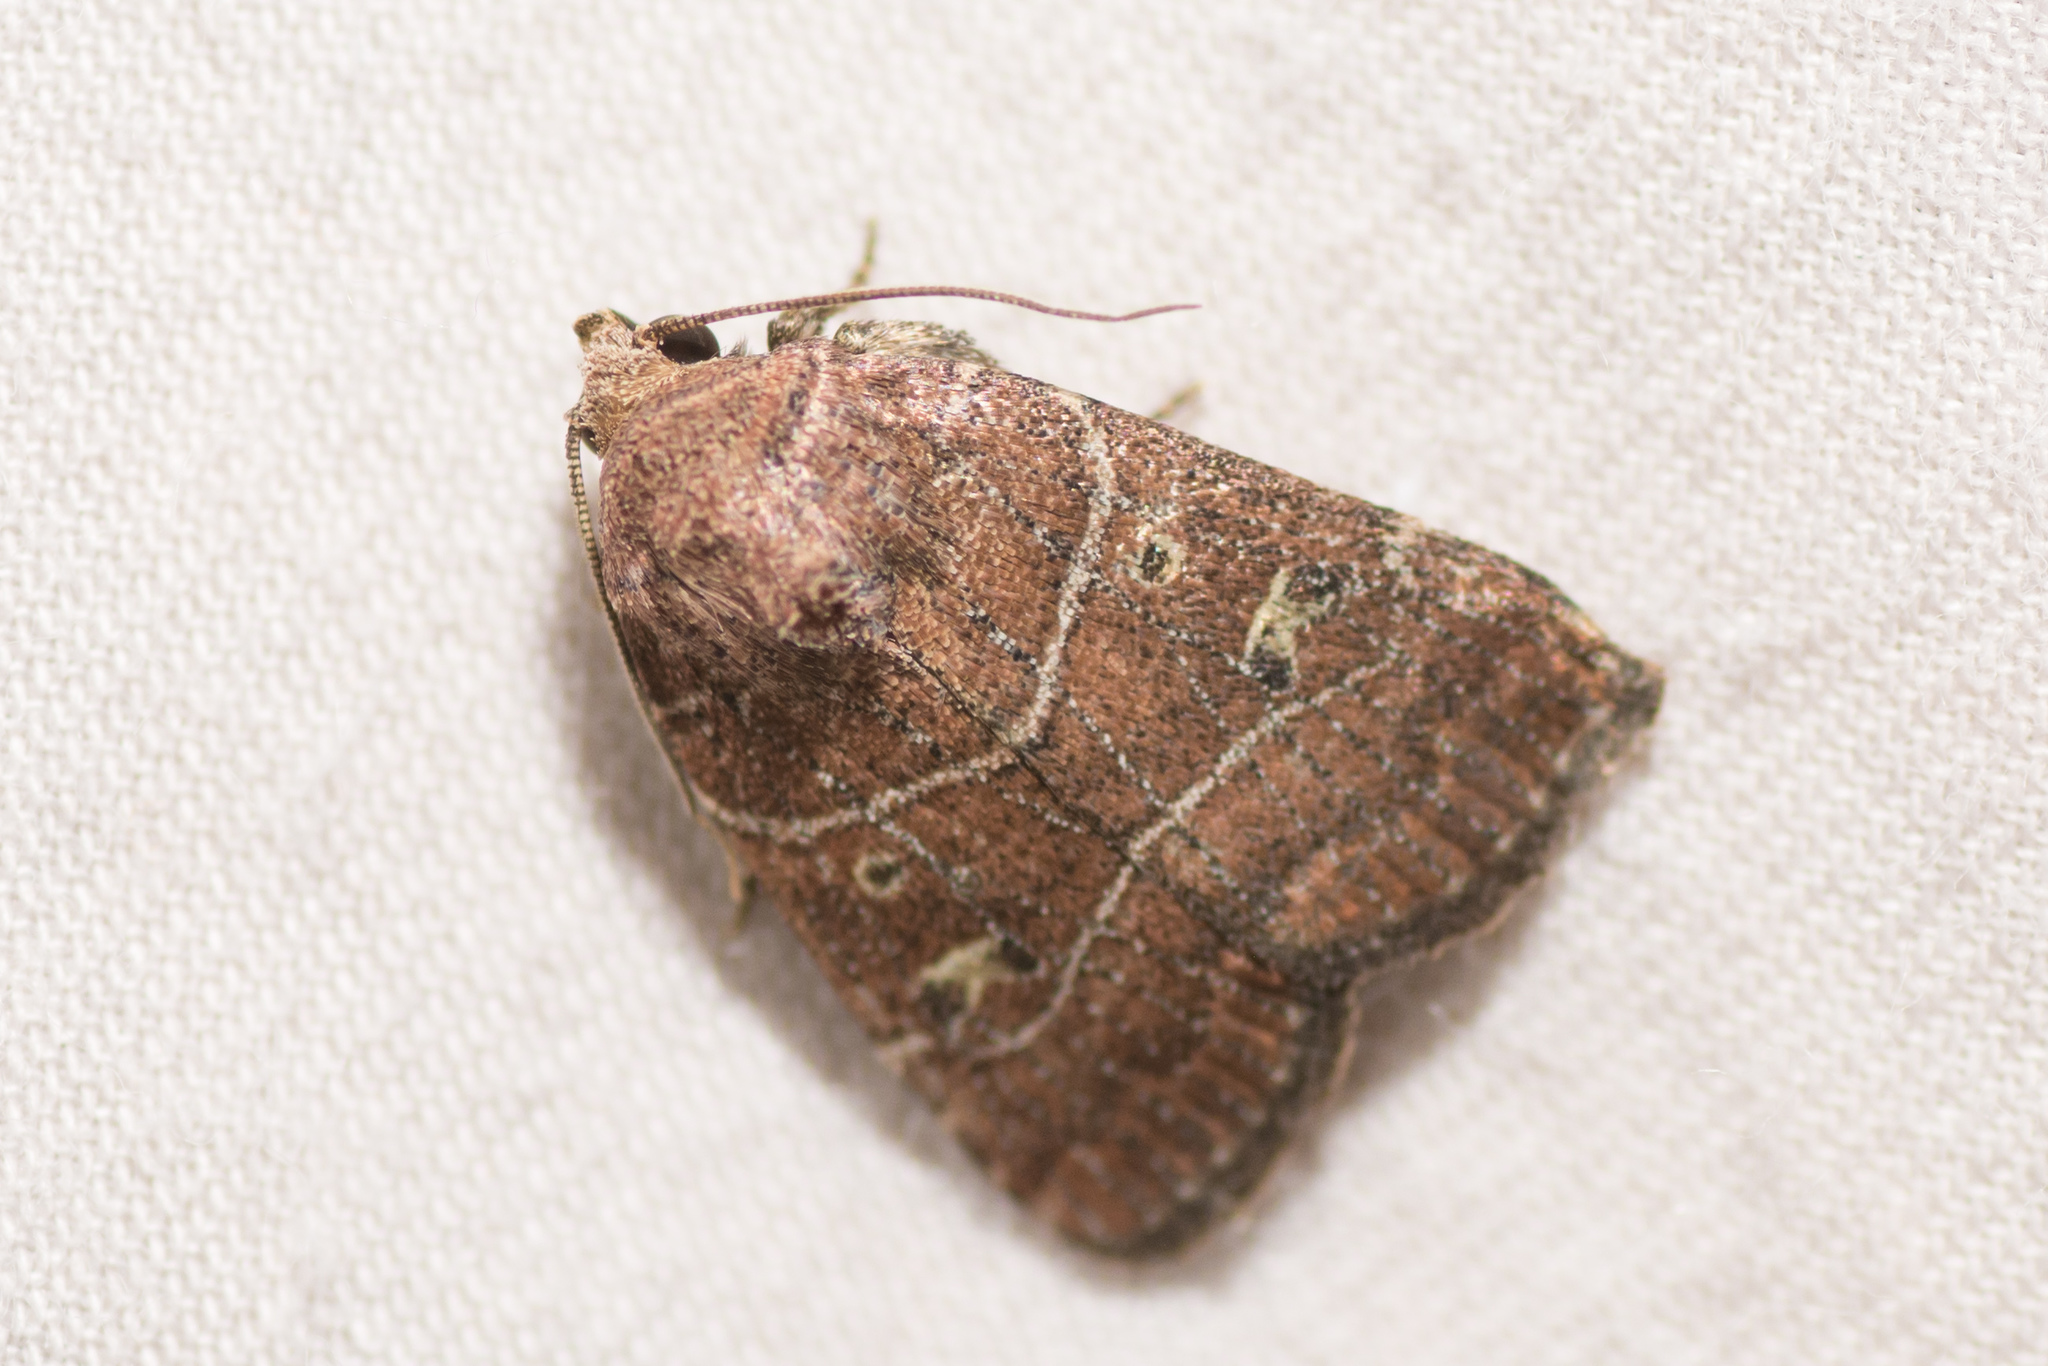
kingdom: Animalia
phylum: Arthropoda
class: Insecta
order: Lepidoptera
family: Noctuidae
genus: Elaphria
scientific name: Elaphria grata
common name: Grateful midget moth
